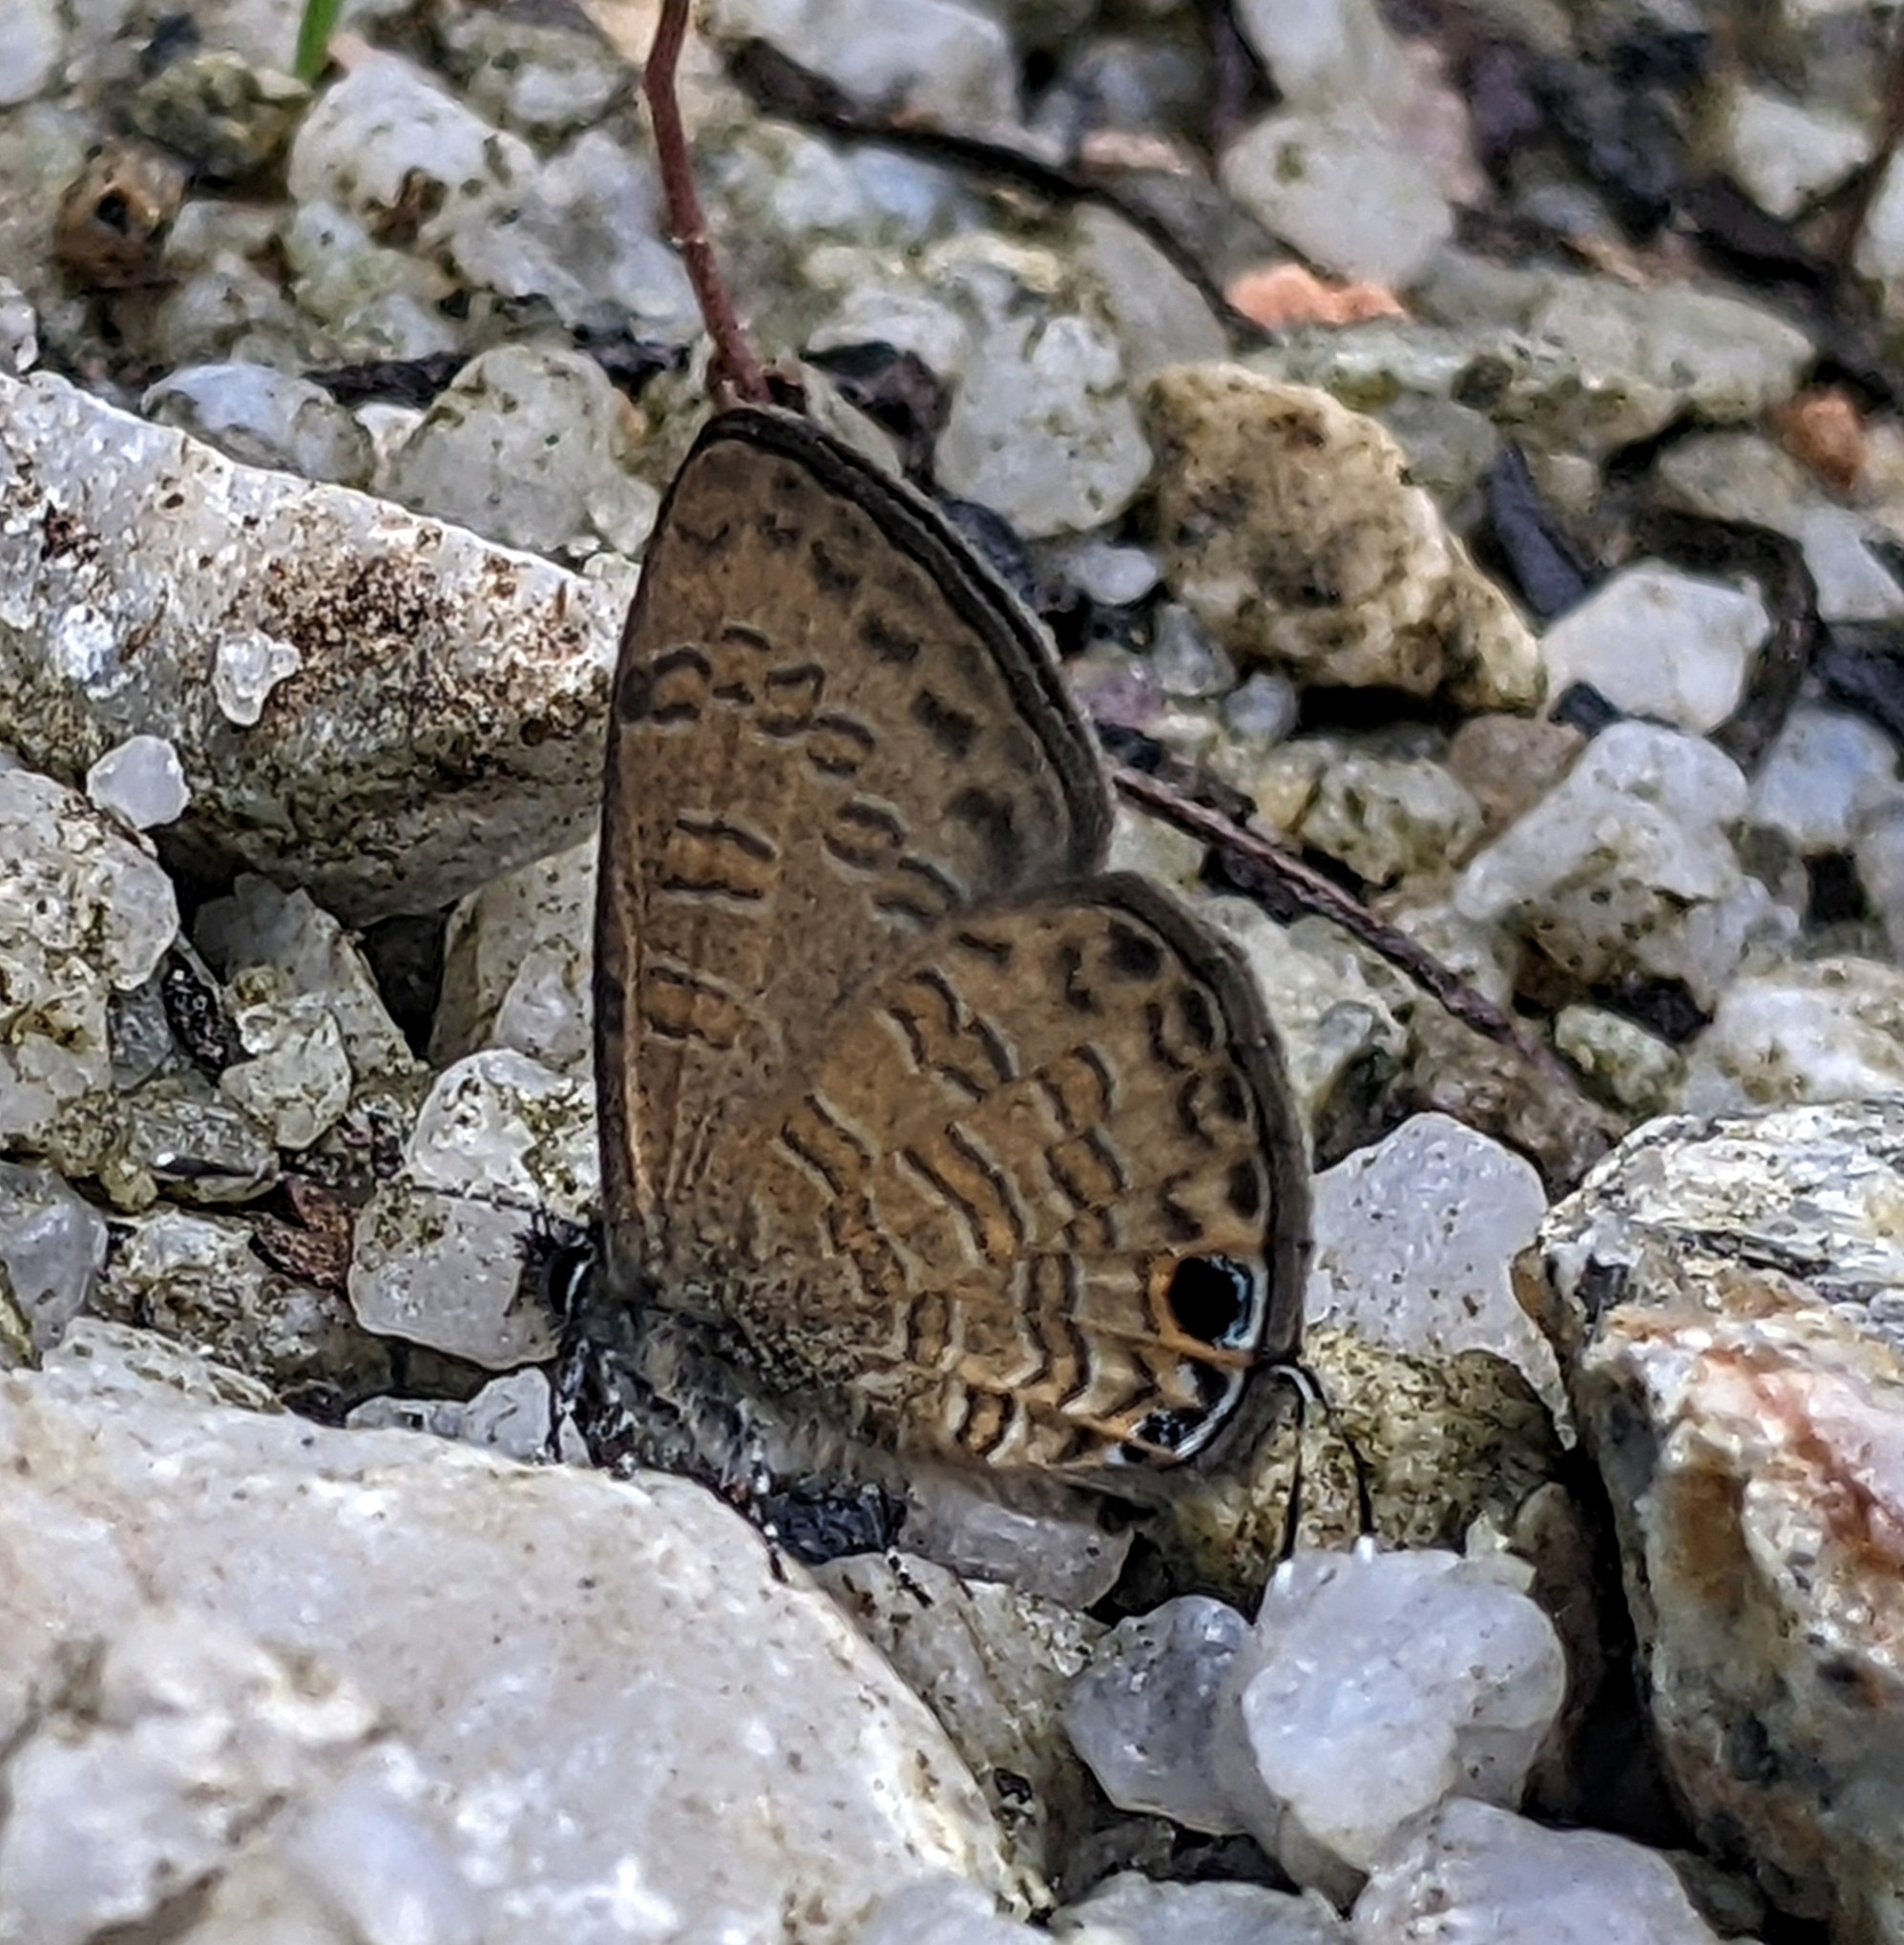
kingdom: Animalia
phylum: Arthropoda
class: Insecta
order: Lepidoptera
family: Lycaenidae
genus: Prosotas
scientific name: Prosotas nora
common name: Common line blue
